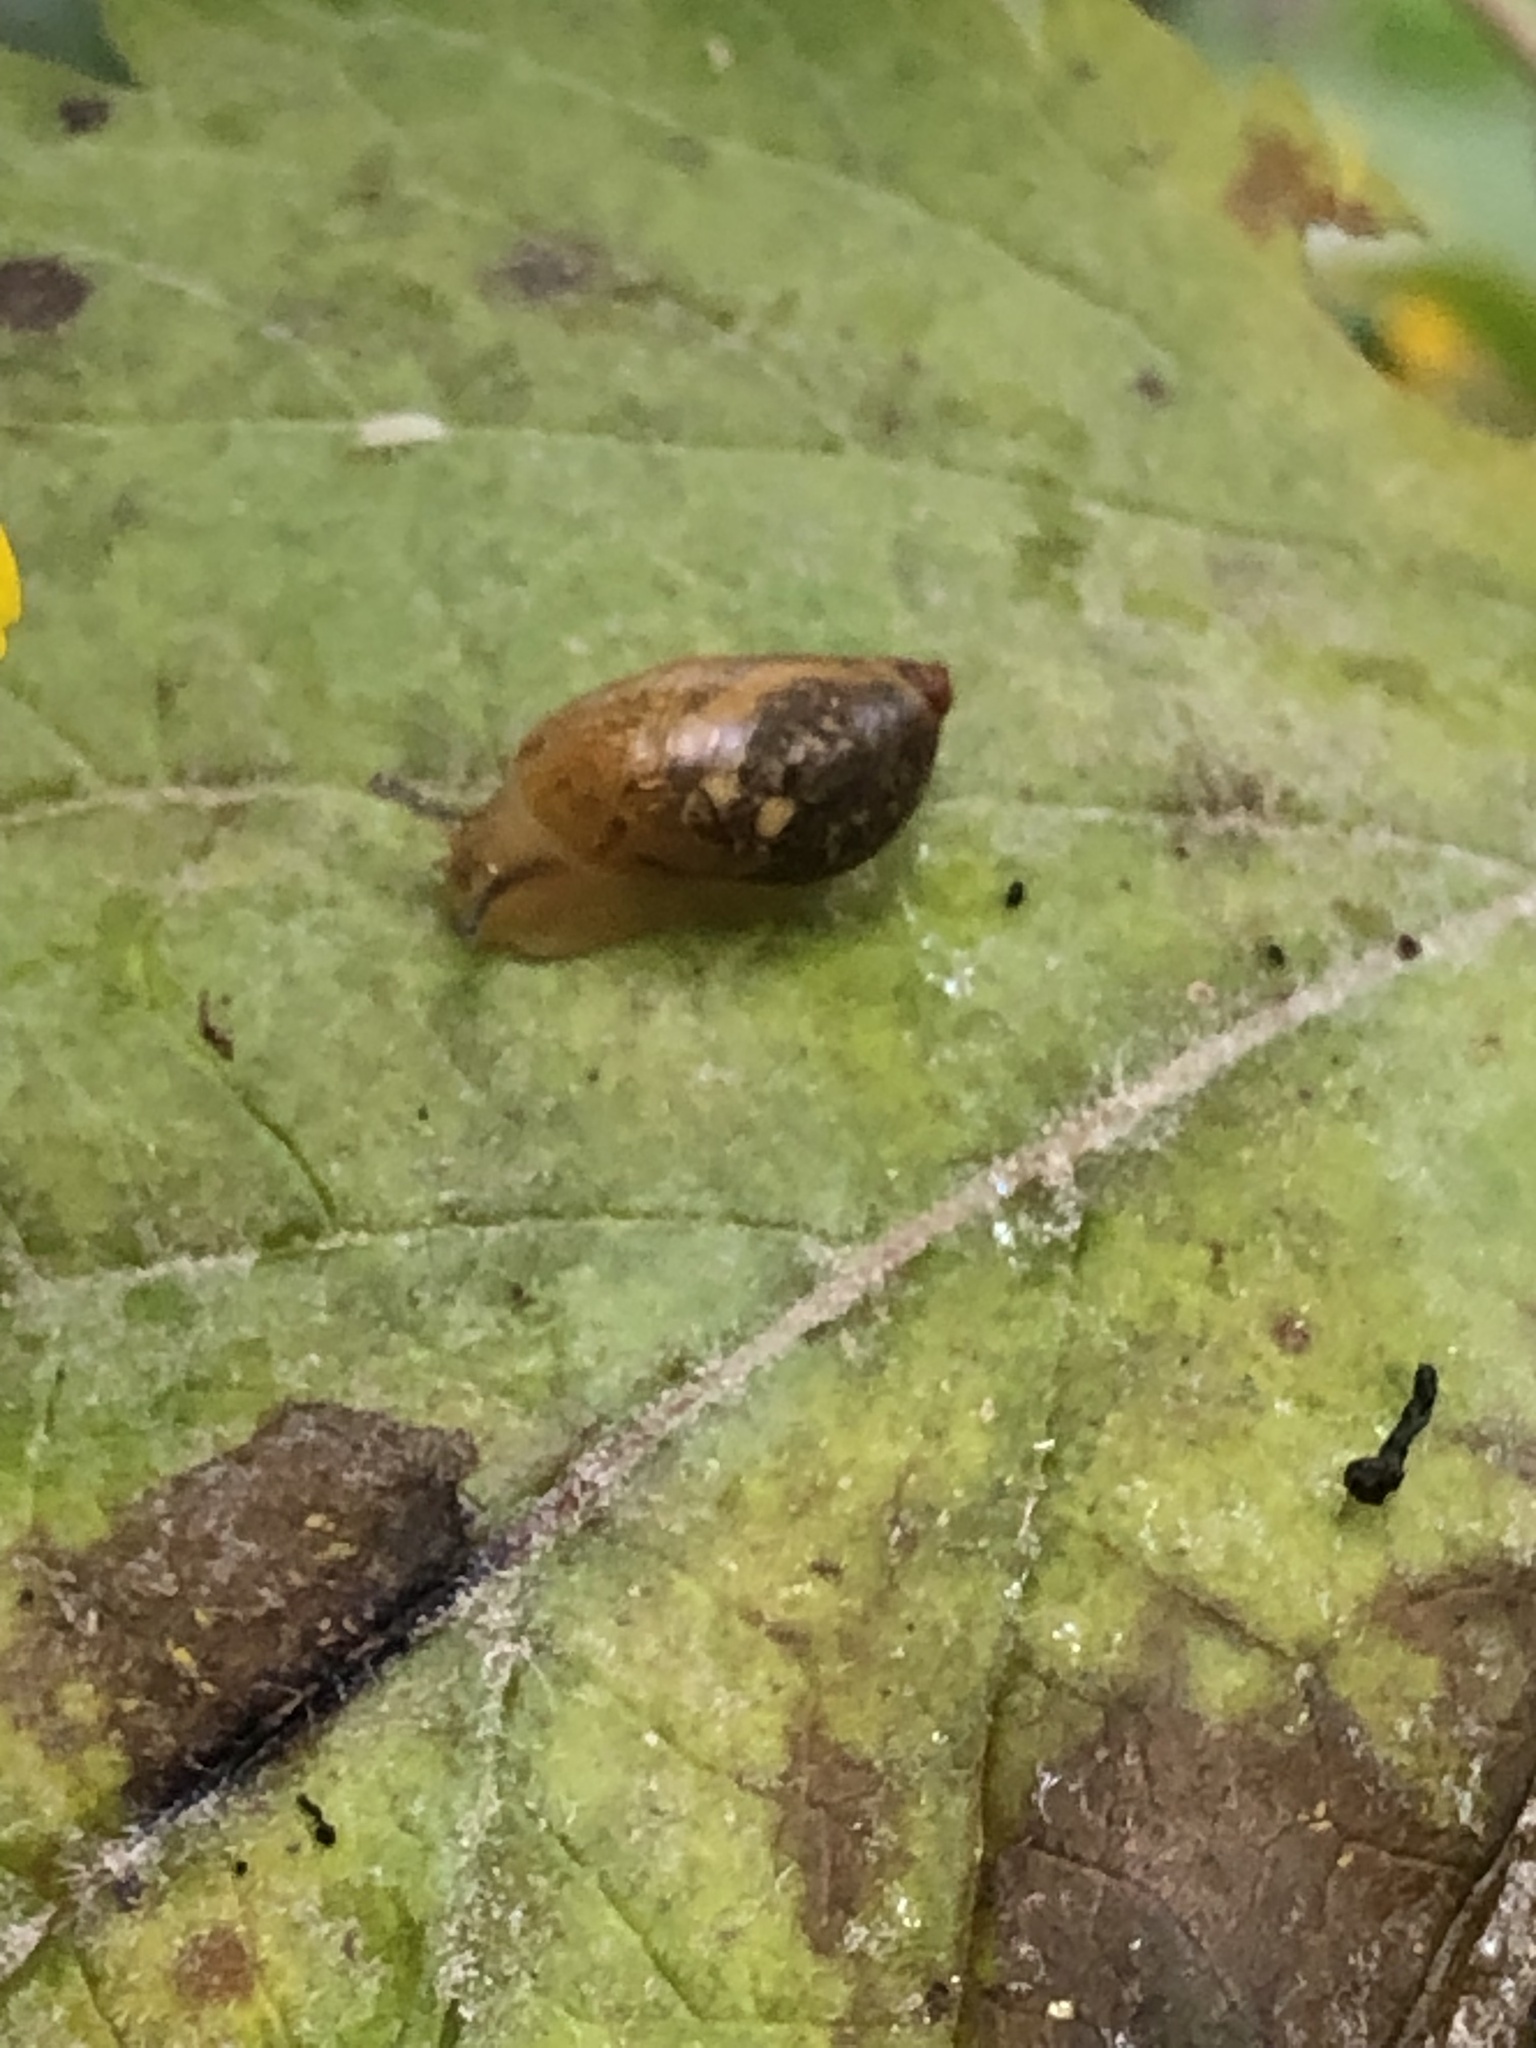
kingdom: Animalia
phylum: Mollusca
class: Gastropoda
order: Stylommatophora
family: Succineidae
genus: Novisuccinea
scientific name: Novisuccinea ovalis
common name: Oval ambersnail
